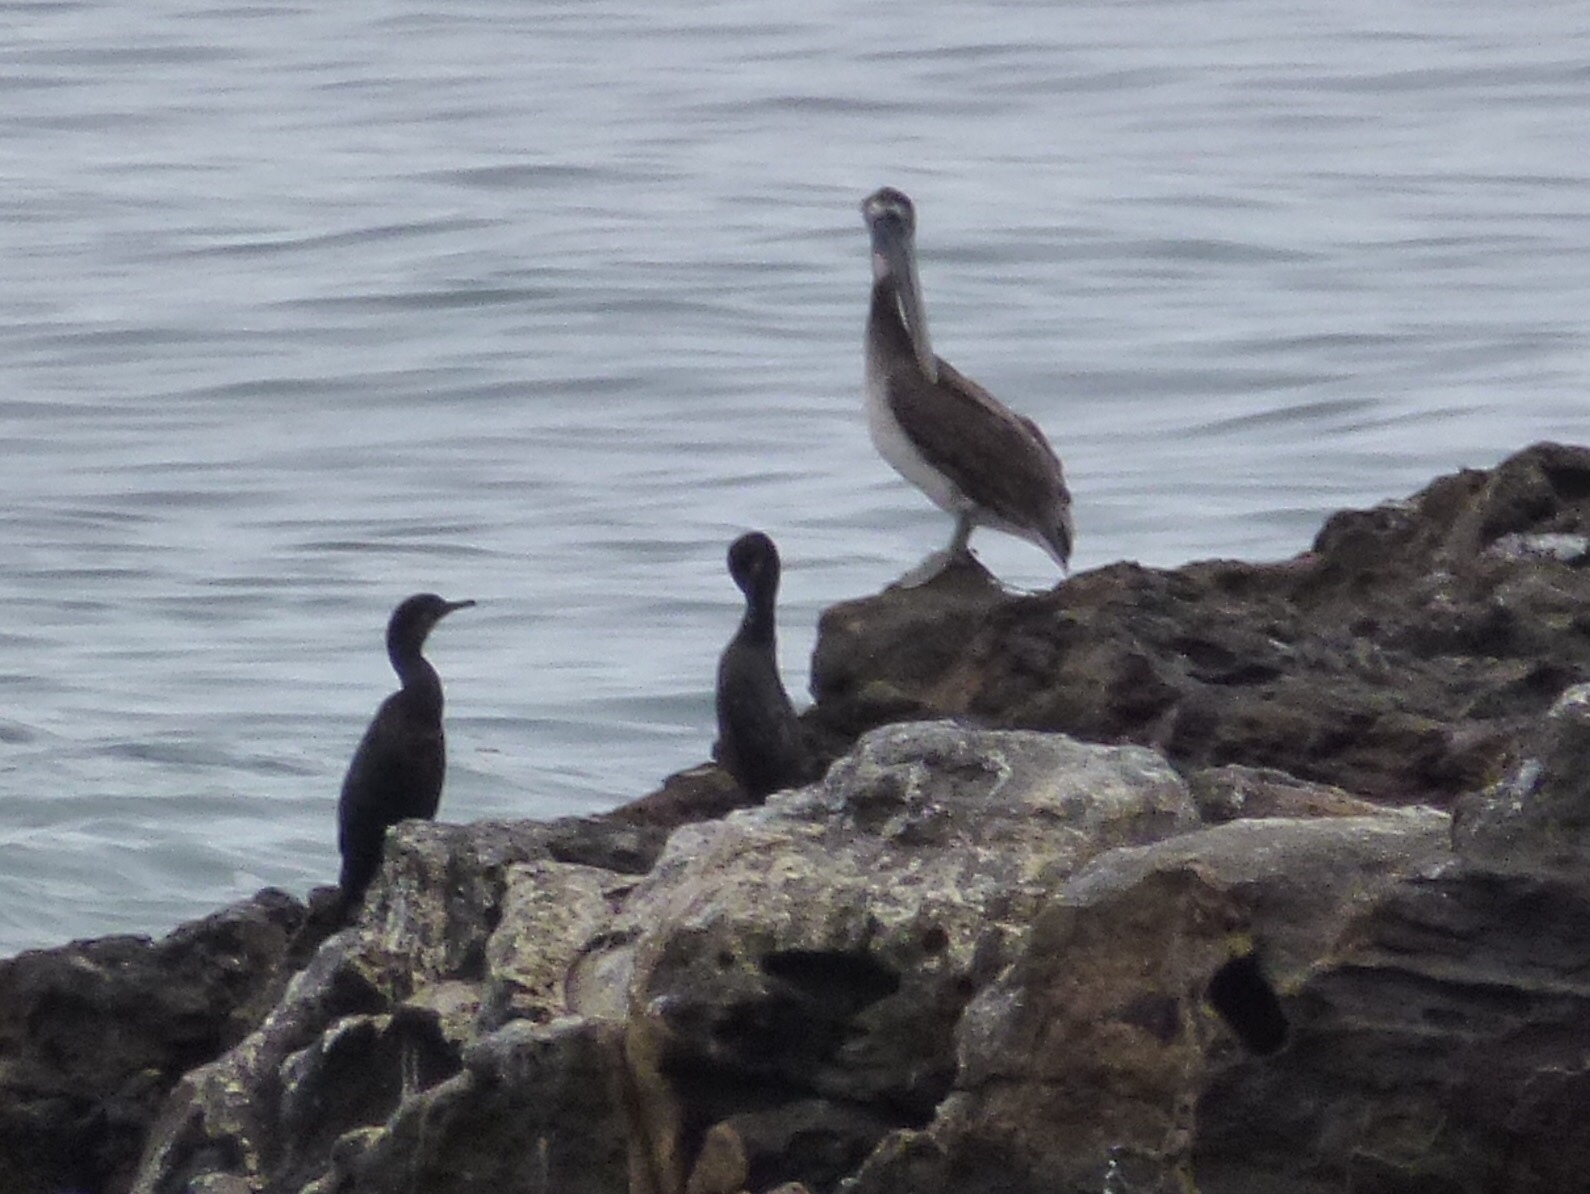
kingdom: Animalia
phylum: Chordata
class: Aves
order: Pelecaniformes
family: Pelecanidae
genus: Pelecanus
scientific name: Pelecanus occidentalis
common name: Brown pelican
